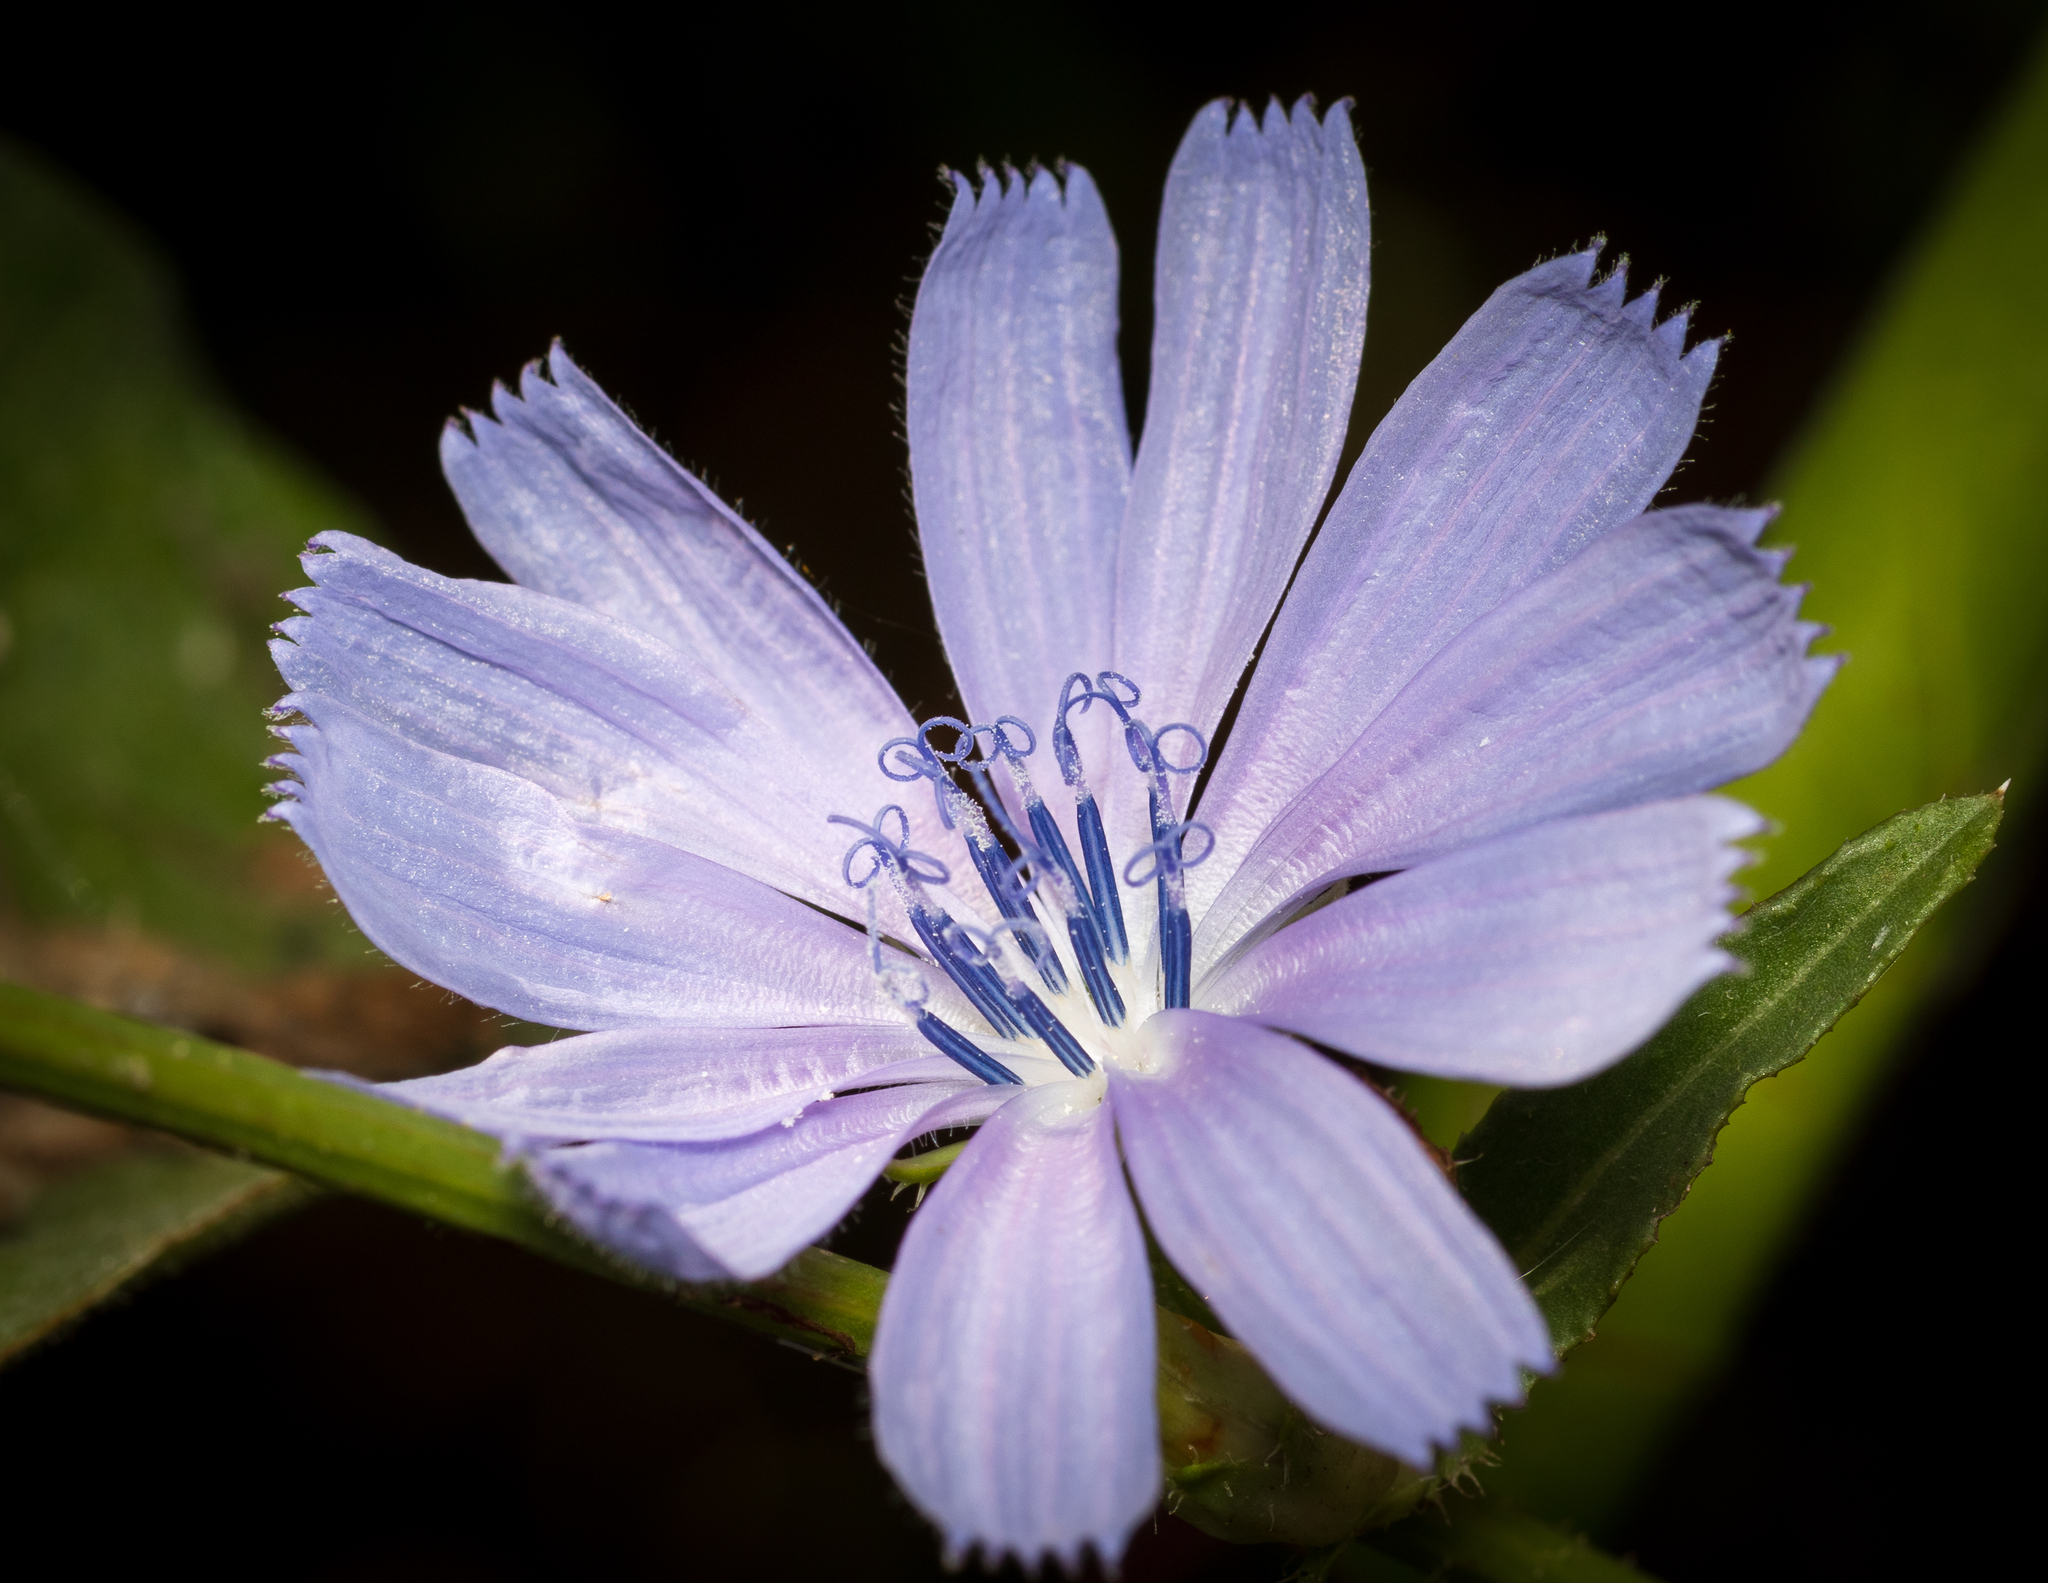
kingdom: Plantae
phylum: Tracheophyta
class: Magnoliopsida
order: Asterales
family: Asteraceae
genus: Cichorium
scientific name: Cichorium intybus
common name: Chicory
